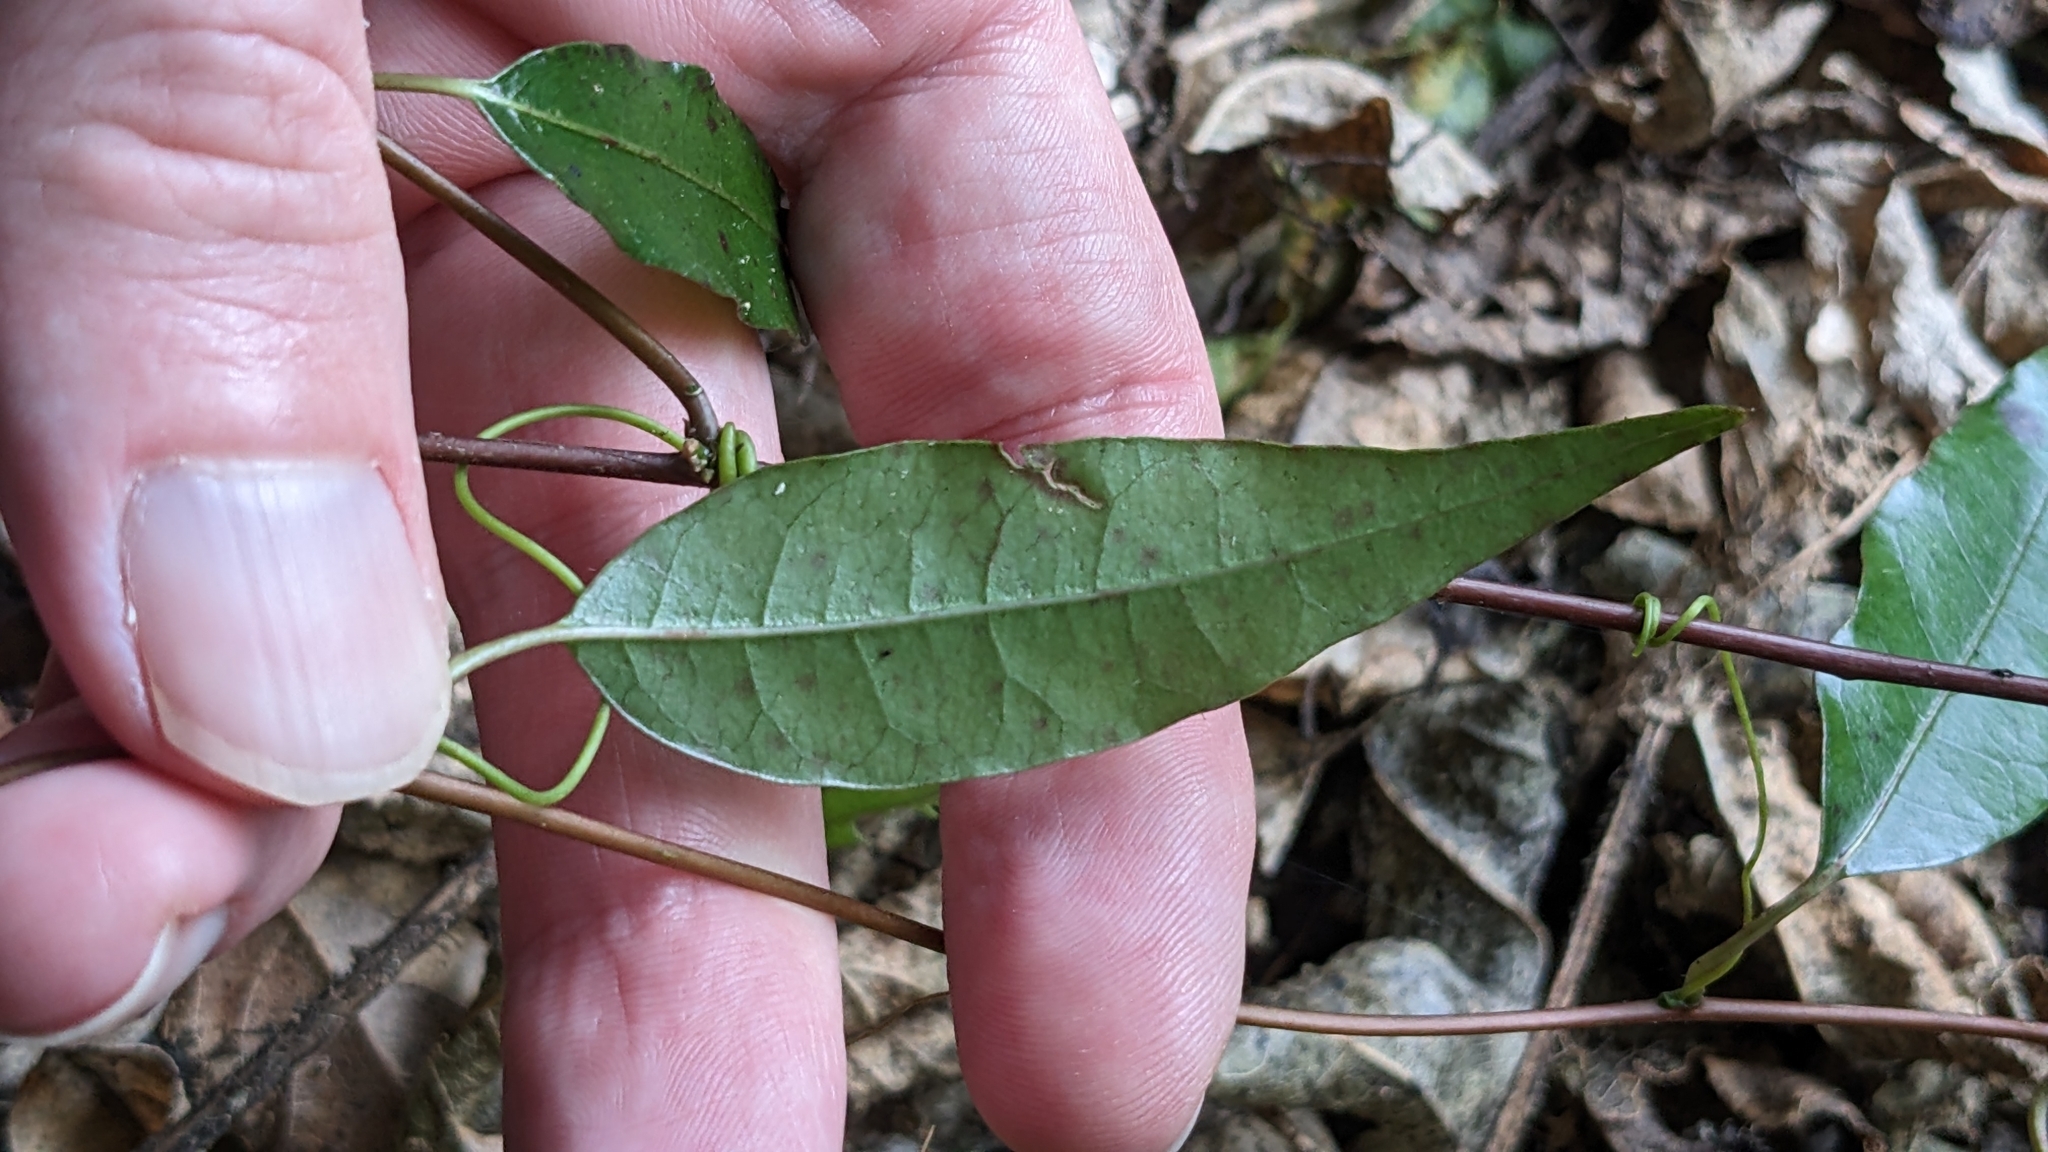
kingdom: Plantae
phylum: Tracheophyta
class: Magnoliopsida
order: Malpighiales
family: Passifloraceae
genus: Passiflora
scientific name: Passiflora tetrandra
